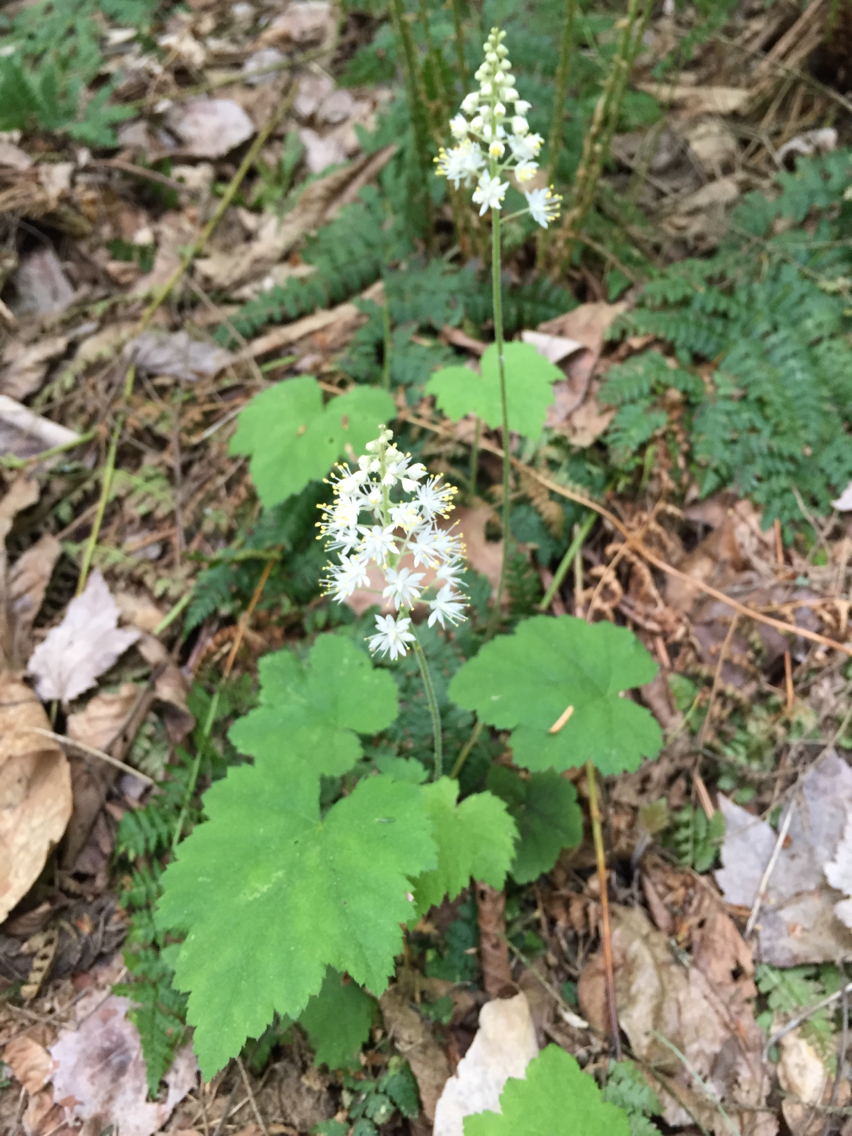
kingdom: Plantae
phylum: Tracheophyta
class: Magnoliopsida
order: Saxifragales
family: Saxifragaceae
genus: Tiarella
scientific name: Tiarella stolonifera
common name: Stoloniferous foamflower
